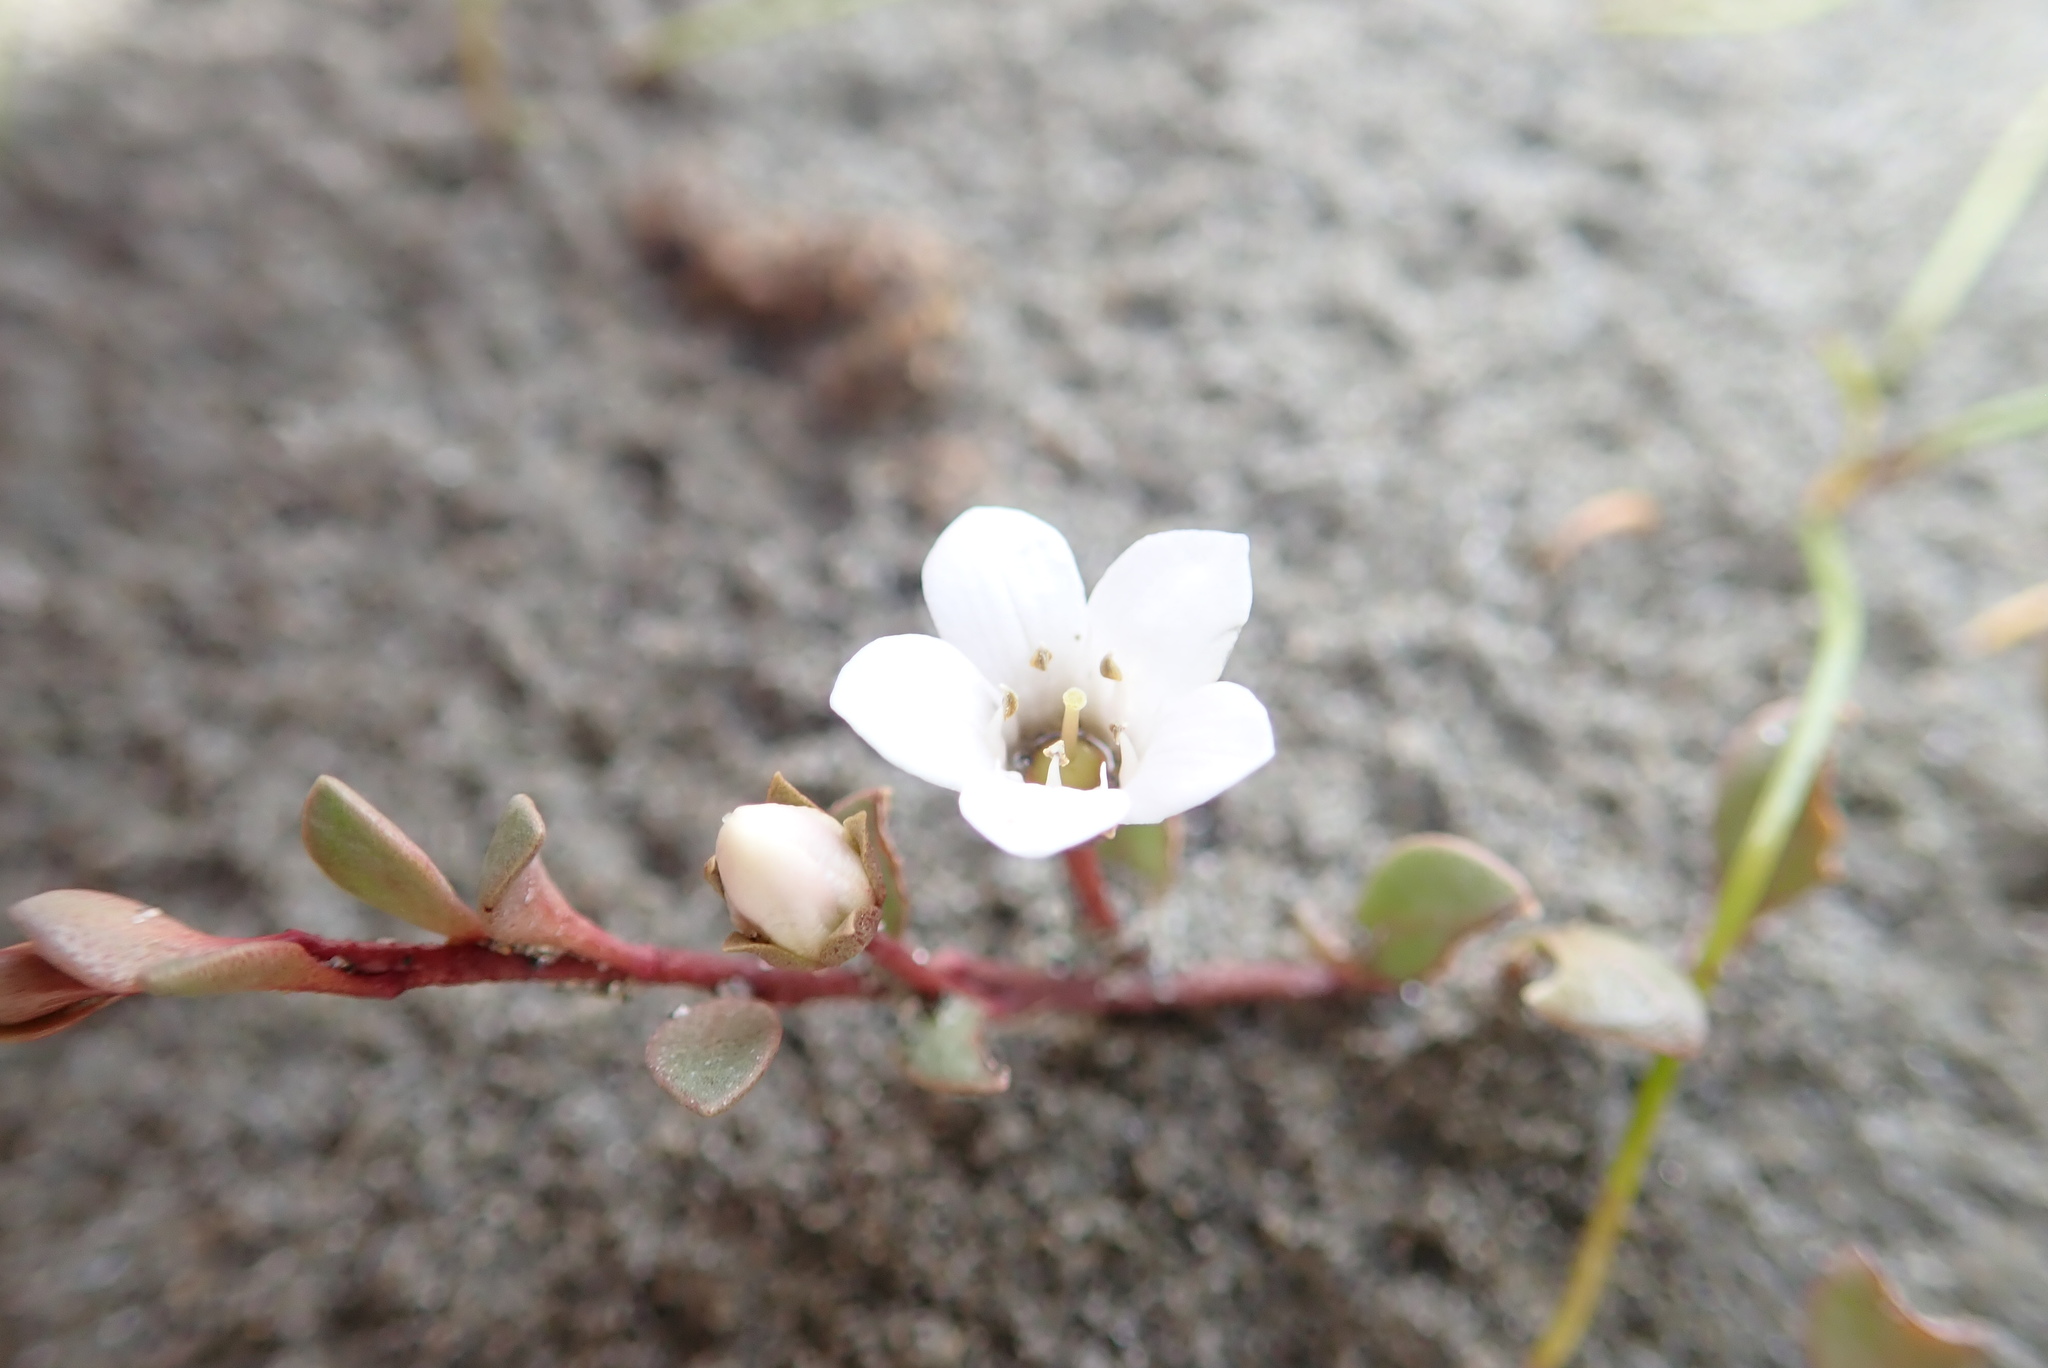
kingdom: Plantae
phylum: Tracheophyta
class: Magnoliopsida
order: Ericales
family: Primulaceae
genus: Samolus
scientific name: Samolus repens
